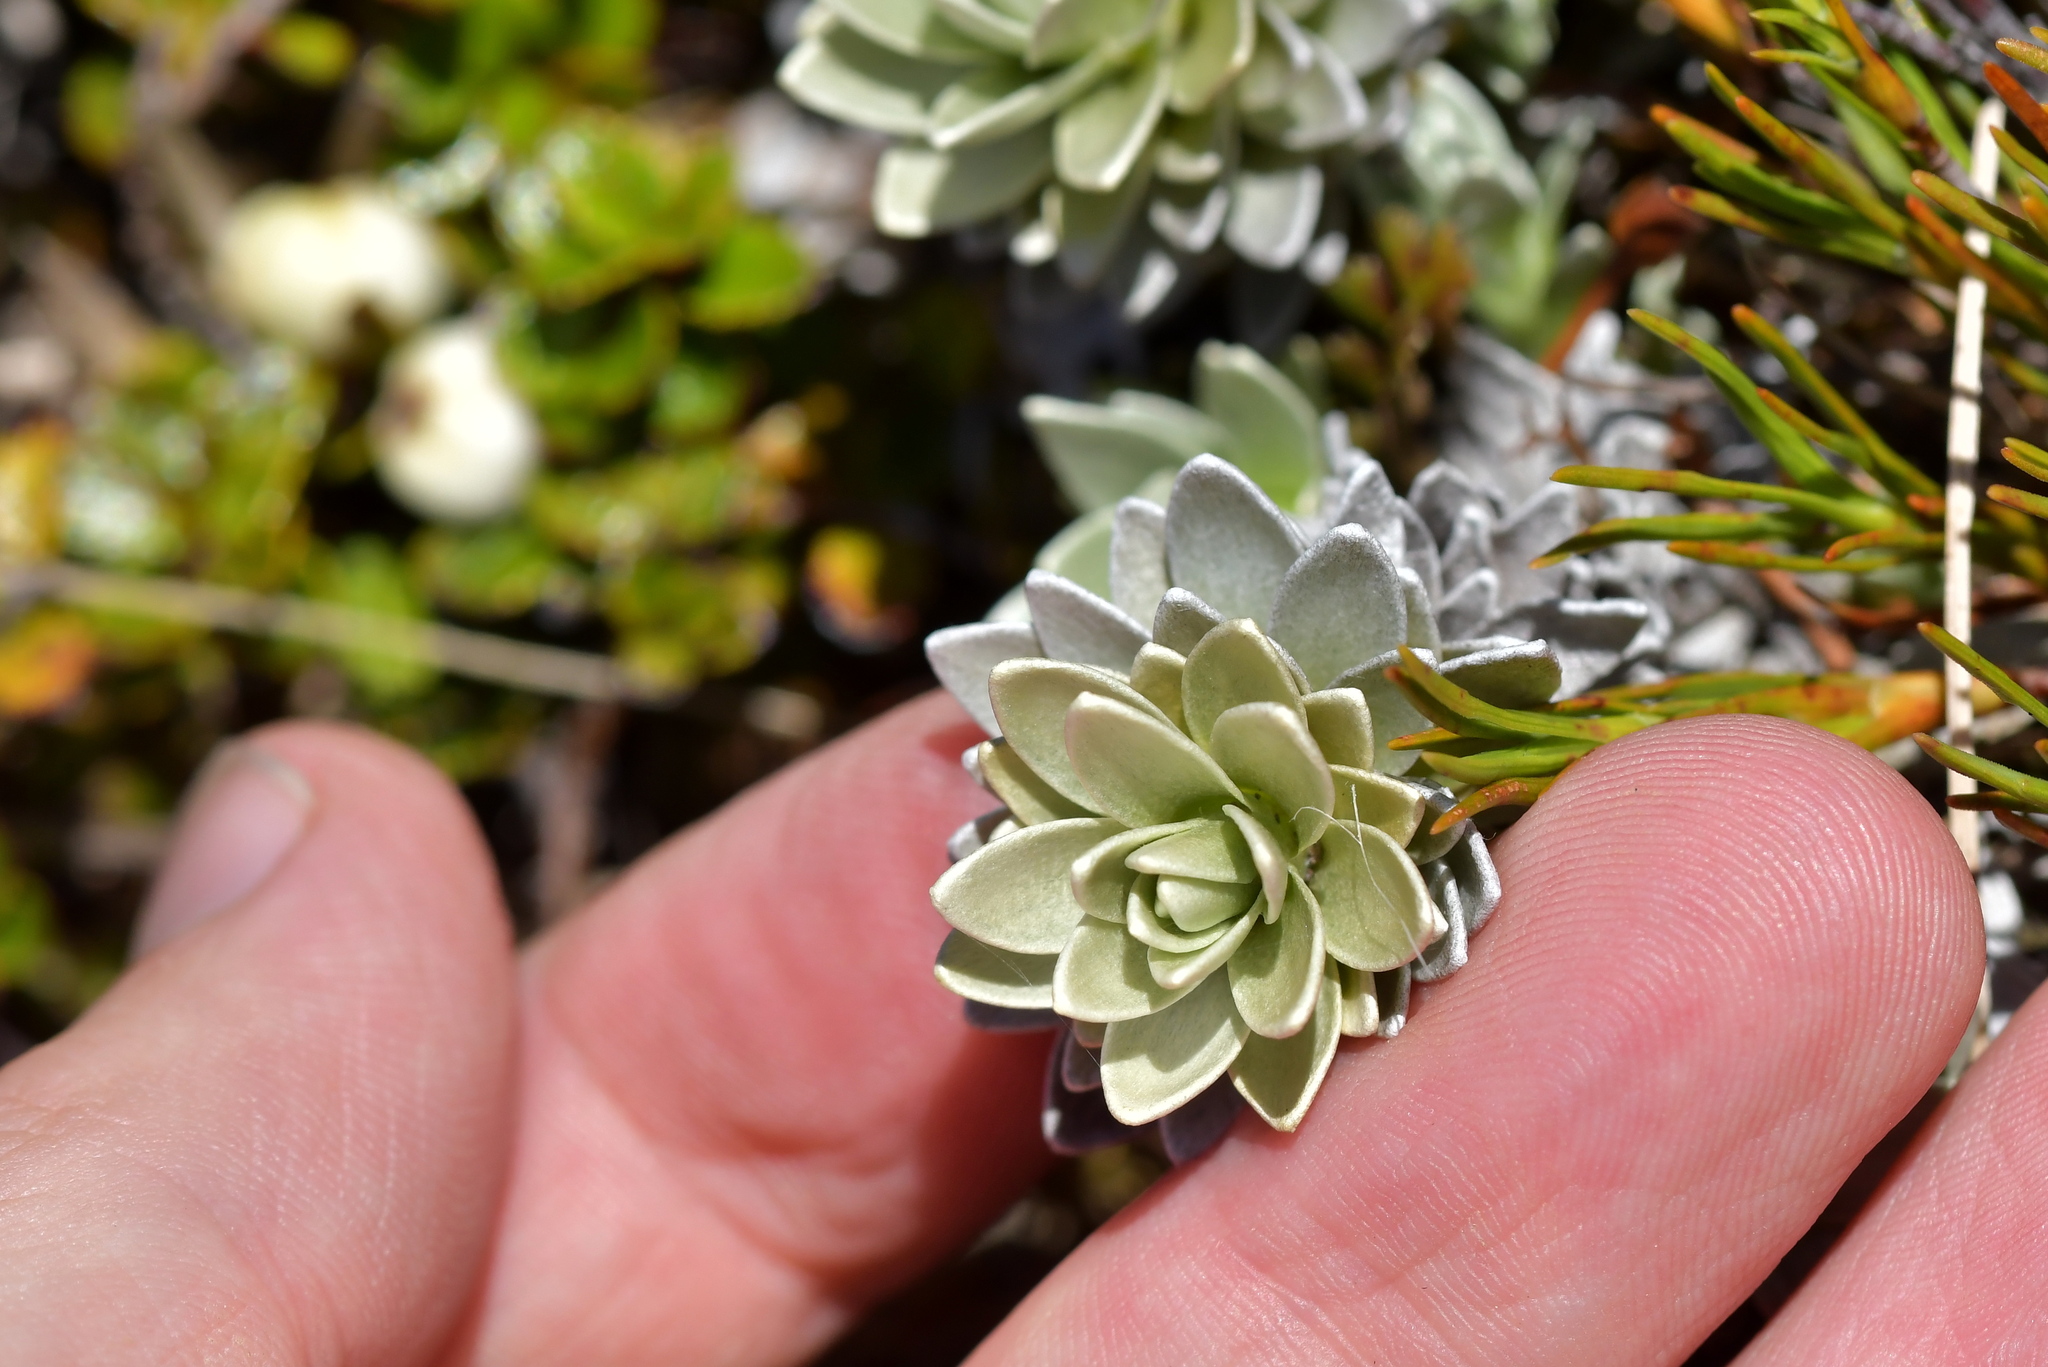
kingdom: Plantae
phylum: Tracheophyta
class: Magnoliopsida
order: Asterales
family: Asteraceae
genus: Leucogenes
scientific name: Leucogenes leontopodium
